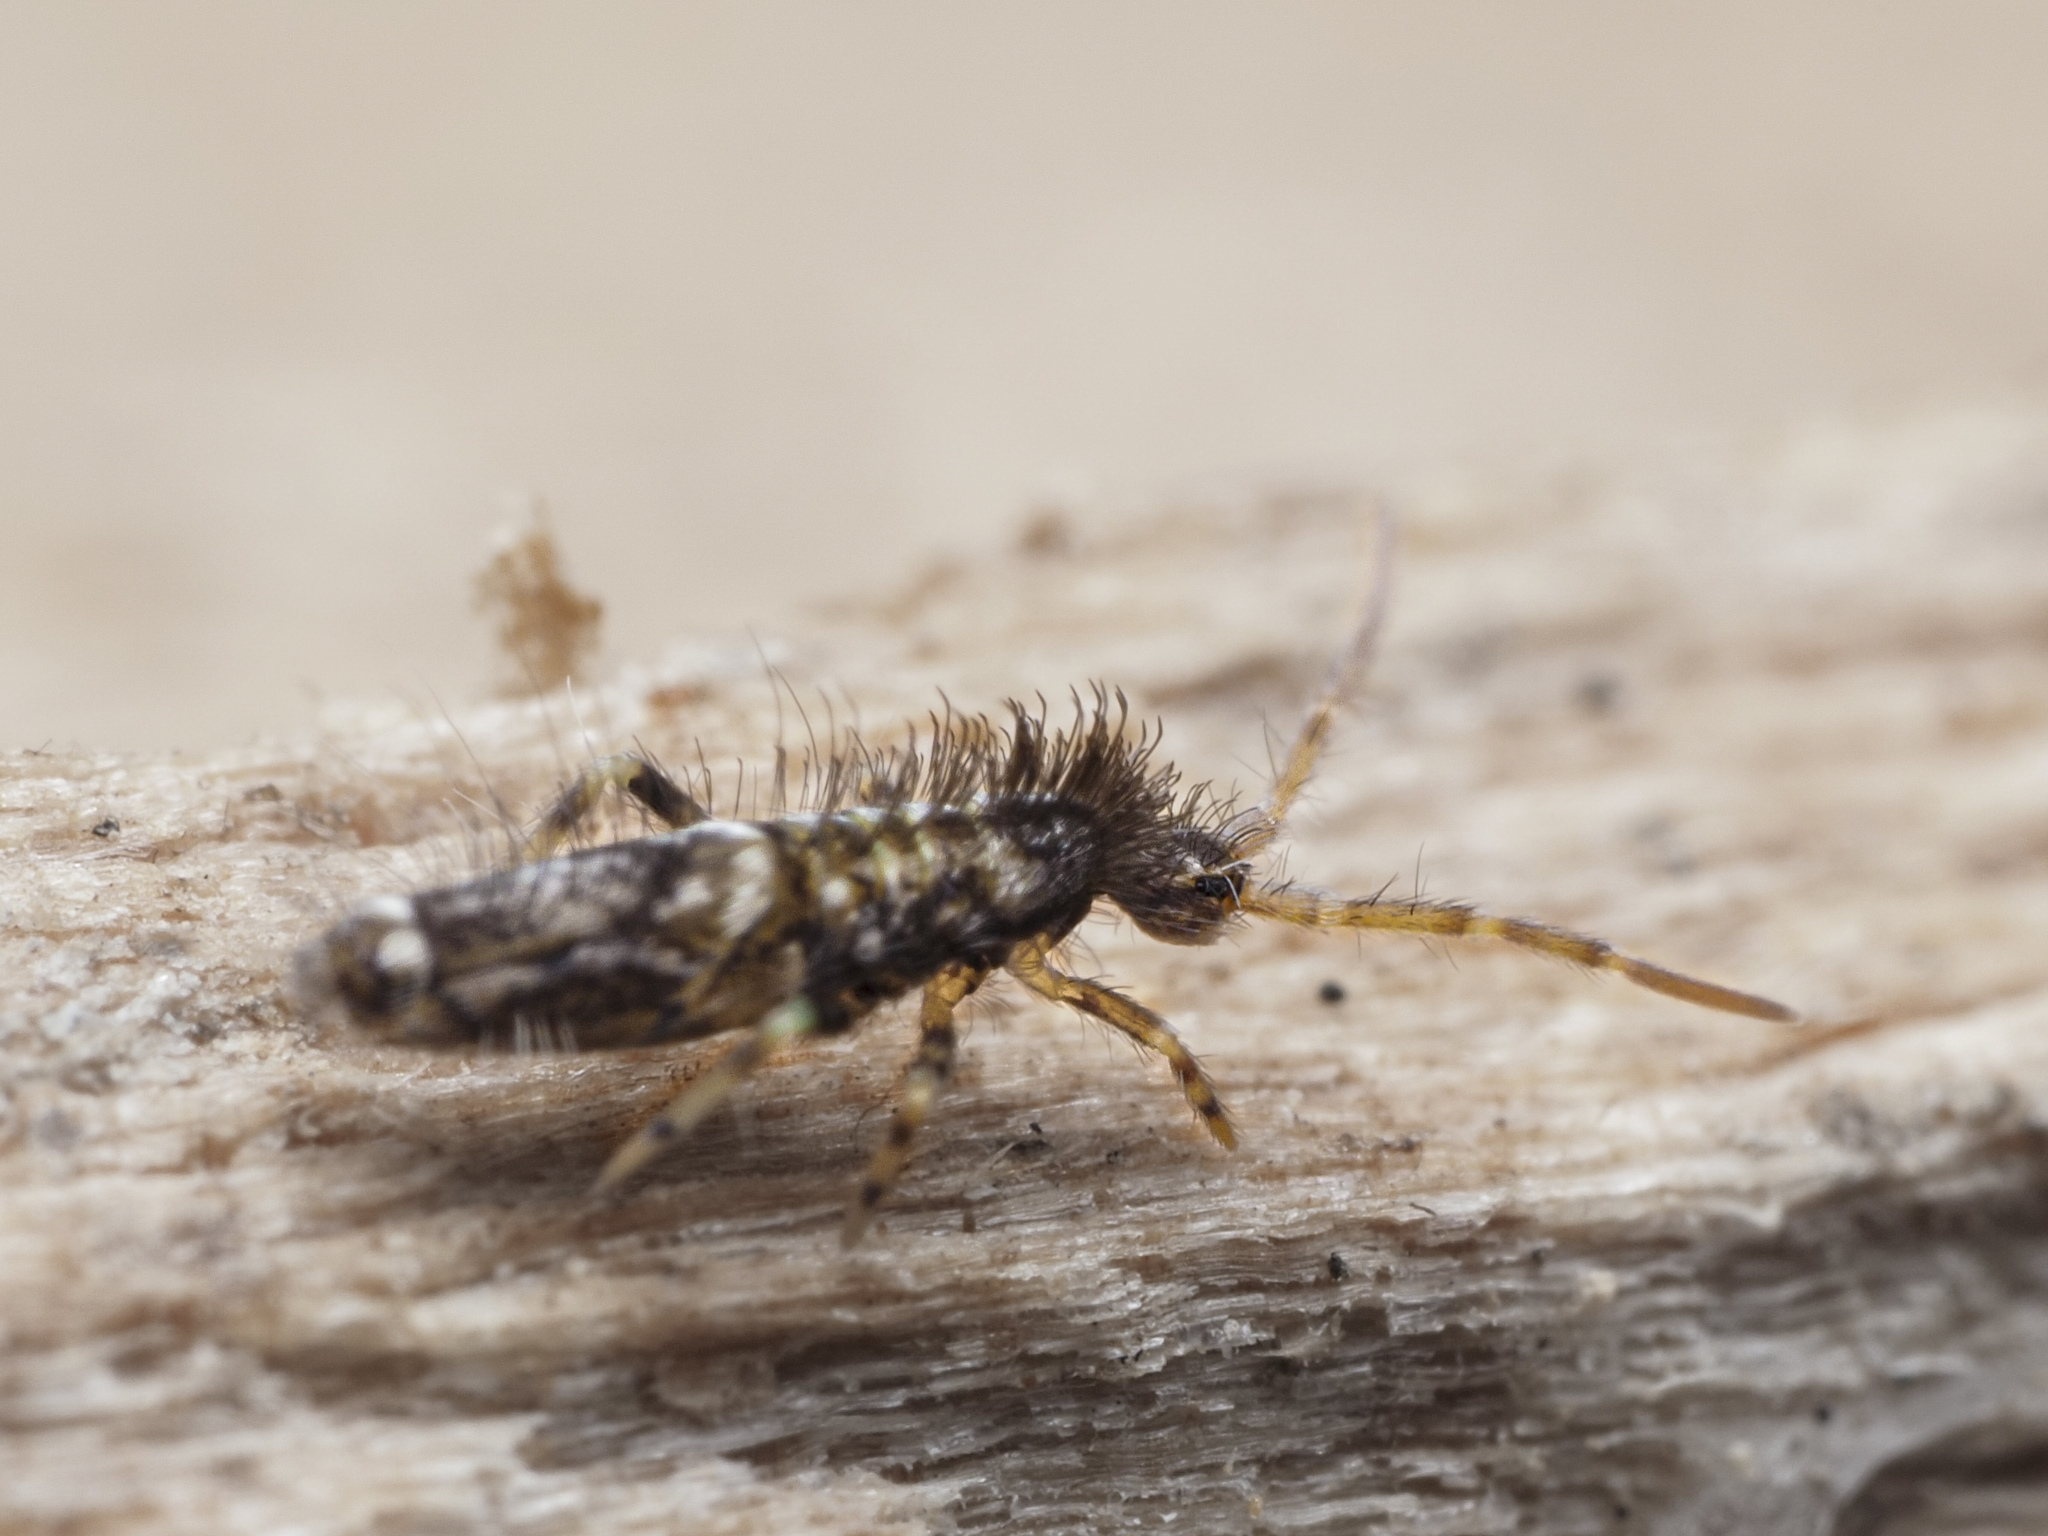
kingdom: Animalia
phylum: Arthropoda
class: Collembola
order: Entomobryomorpha
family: Entomobryidae
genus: Entomobrya
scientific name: Entomobrya dorsalis
